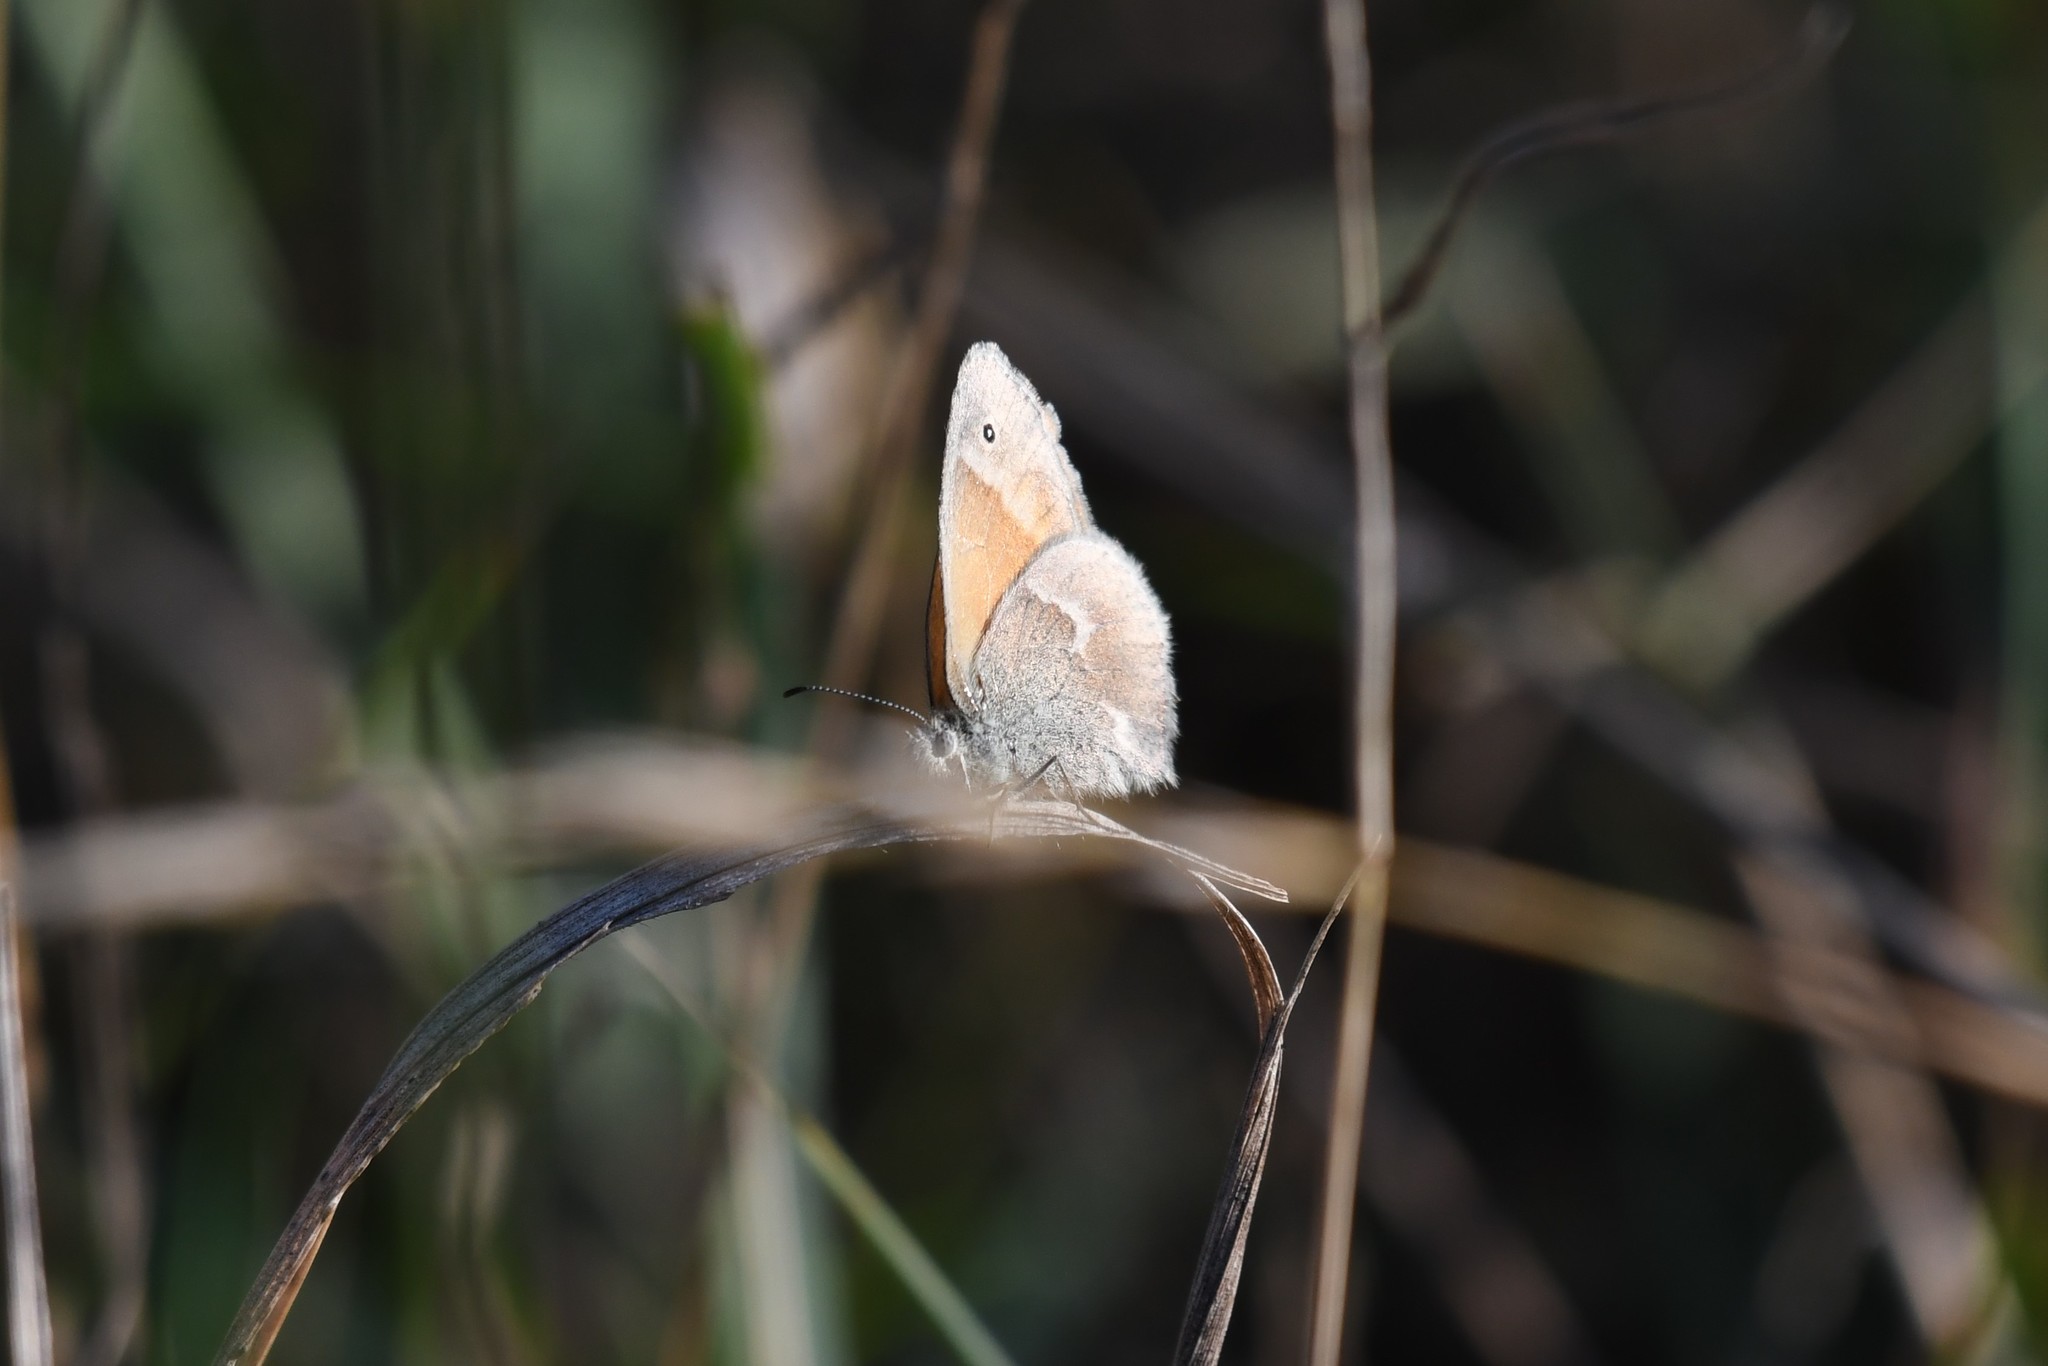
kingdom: Animalia
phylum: Arthropoda
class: Insecta
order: Lepidoptera
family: Nymphalidae
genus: Coenonympha
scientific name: Coenonympha california
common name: Common ringlet
